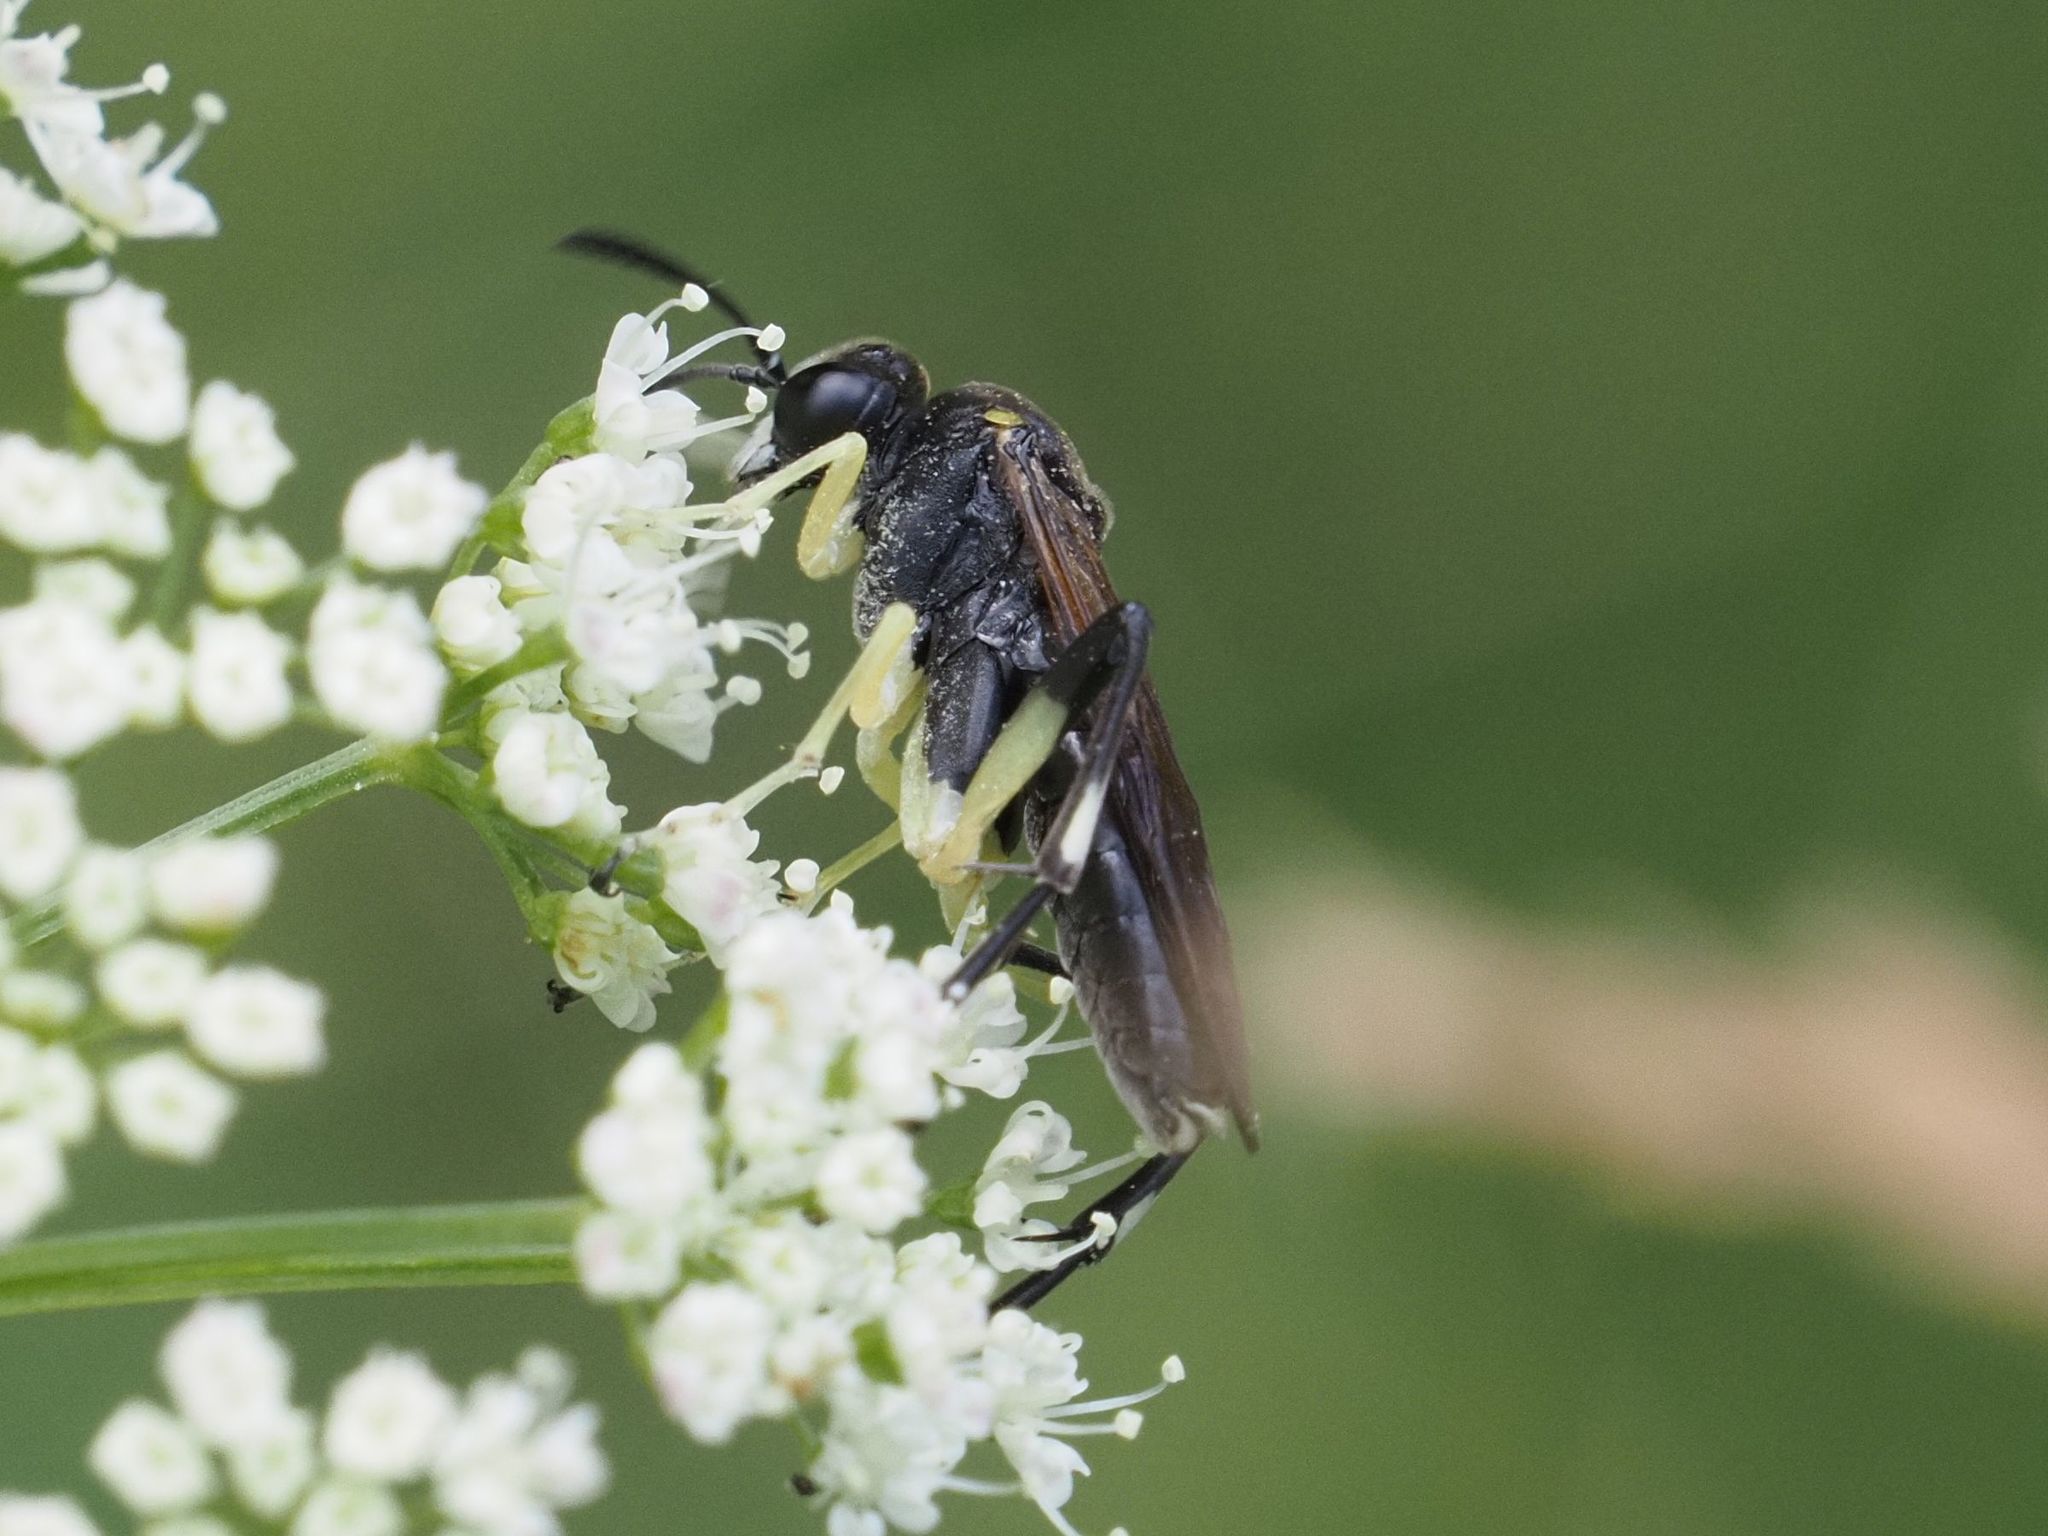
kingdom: Animalia
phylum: Arthropoda
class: Insecta
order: Hymenoptera
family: Tenthredinidae
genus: Macrophya
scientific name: Macrophya montana
